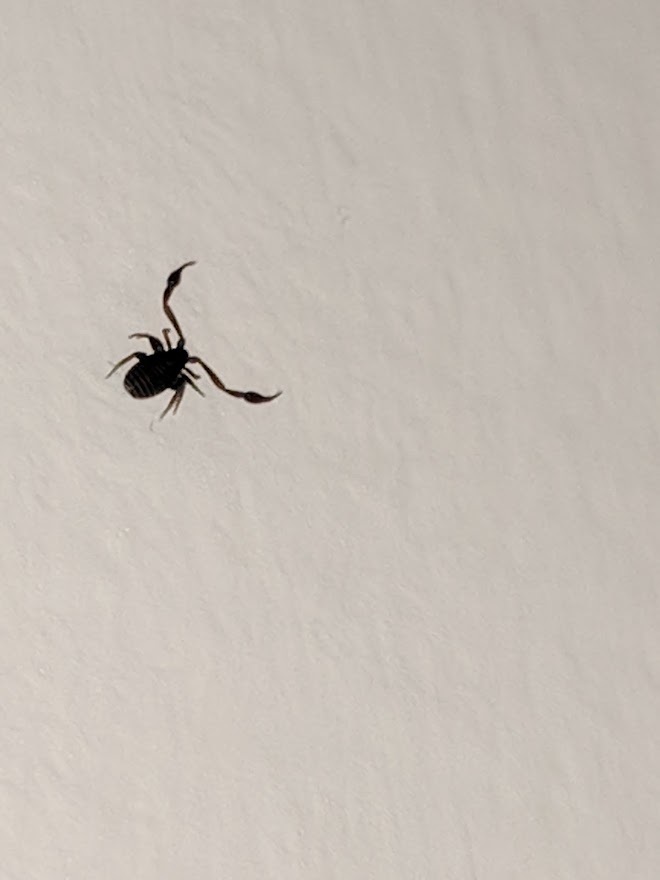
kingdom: Animalia
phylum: Arthropoda
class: Arachnida
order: Pseudoscorpiones
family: Cheliferidae
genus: Chelifer
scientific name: Chelifer cancroides
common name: House false-scorpion
